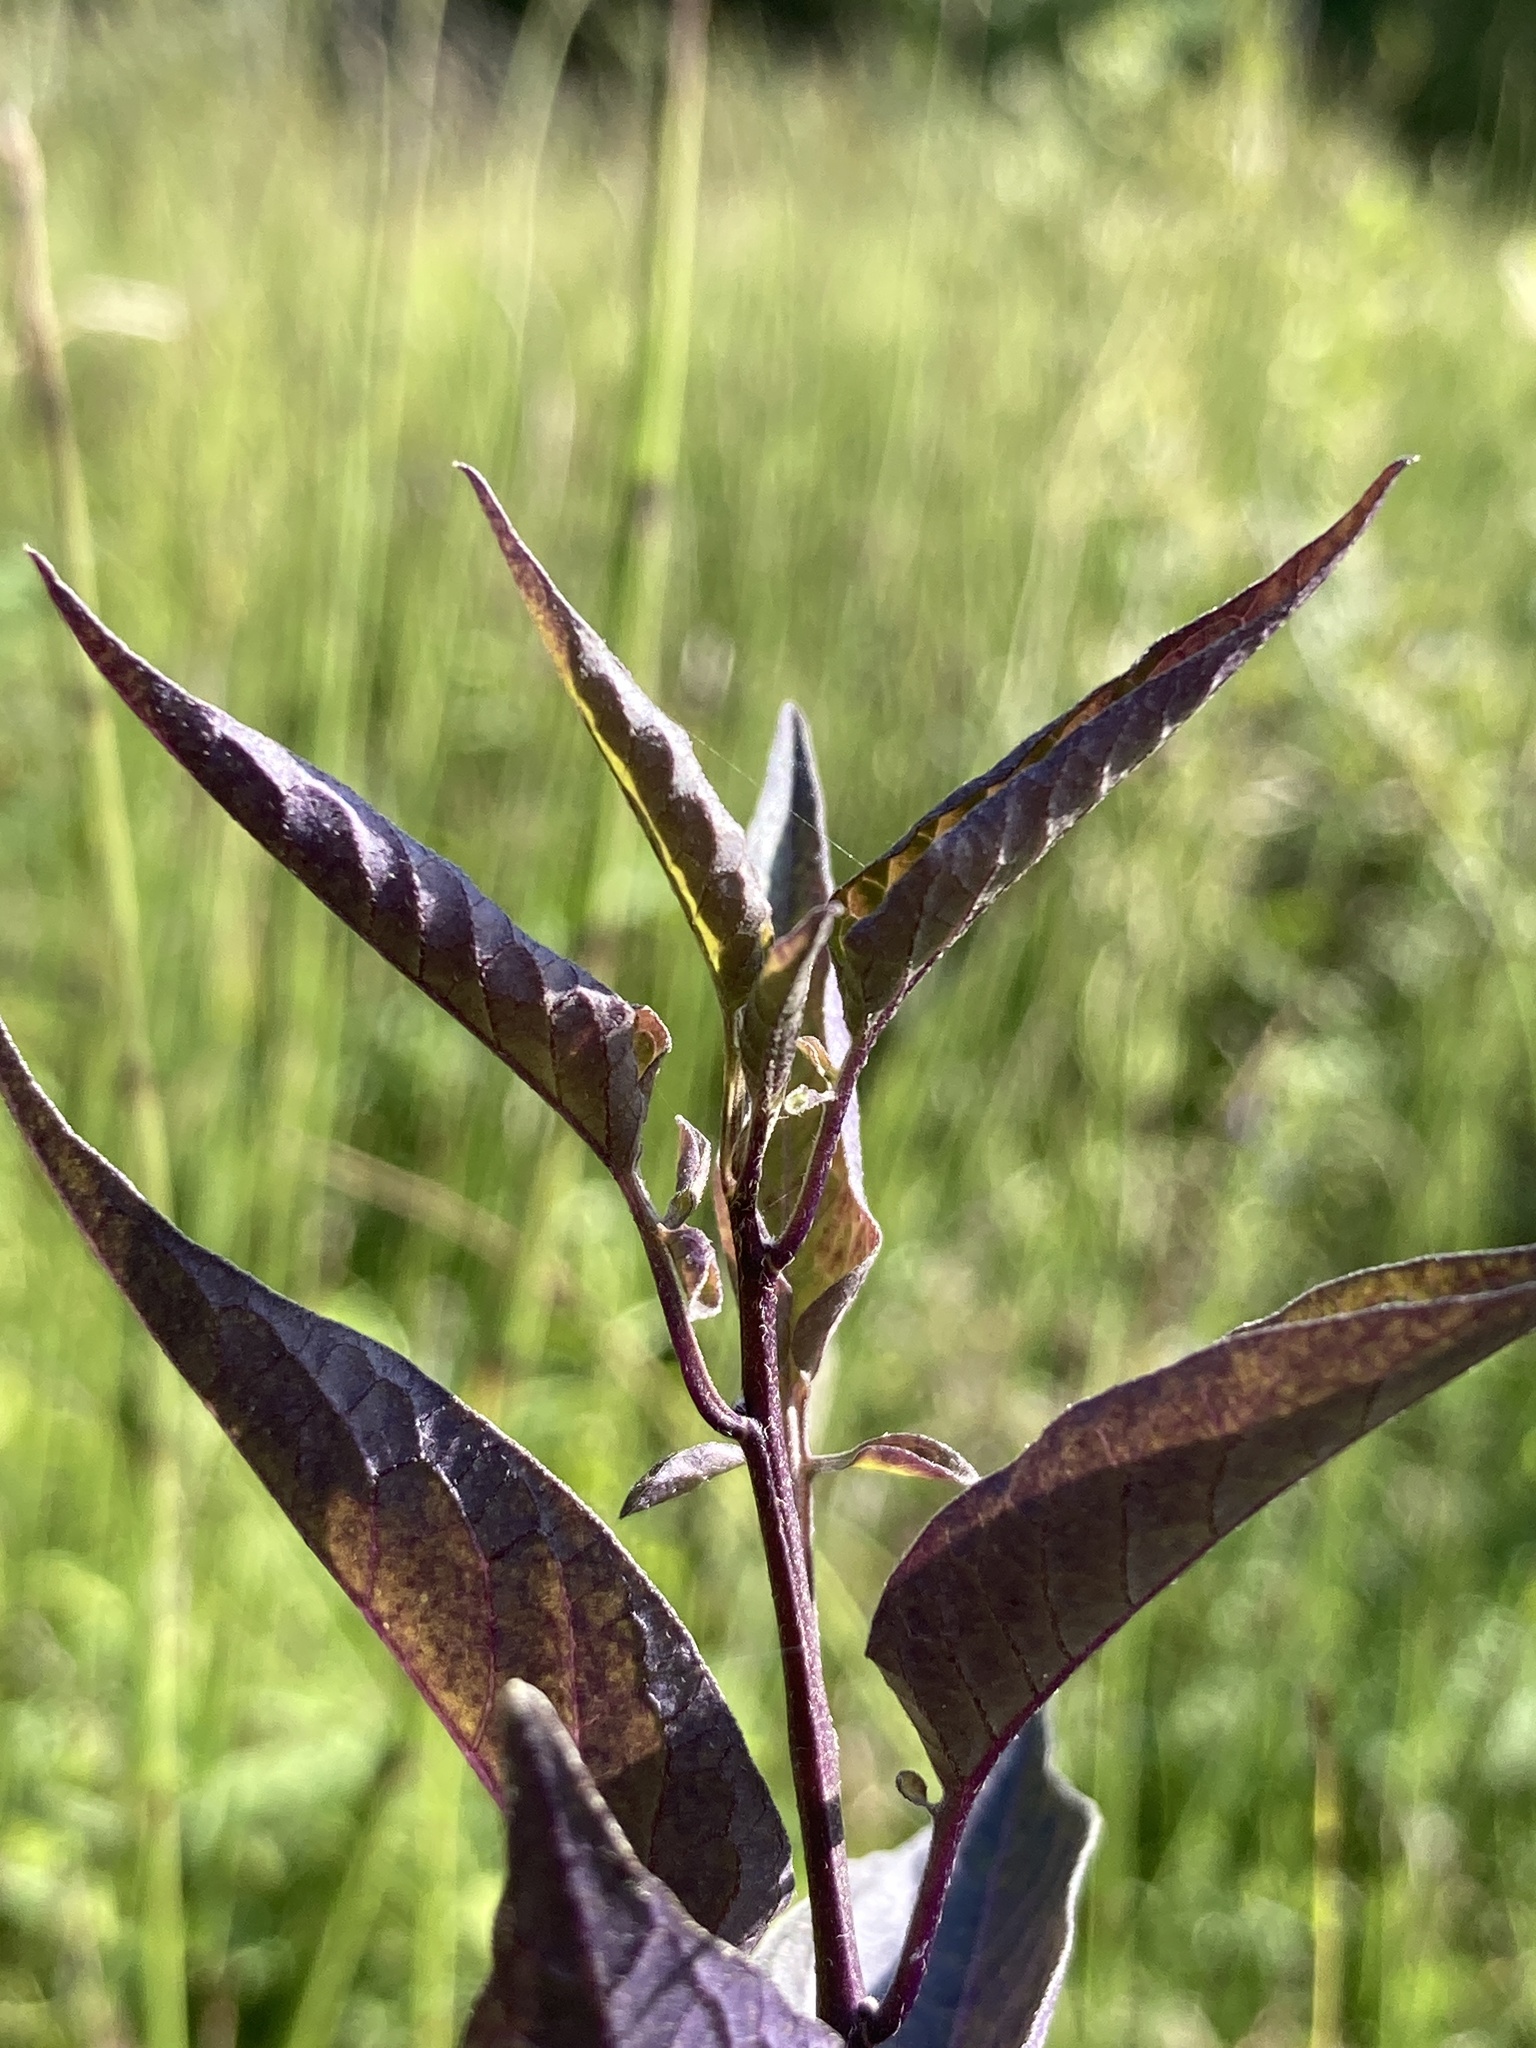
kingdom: Plantae
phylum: Tracheophyta
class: Magnoliopsida
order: Solanales
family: Solanaceae
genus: Solanum
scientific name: Solanum dulcamara
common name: Climbing nightshade
